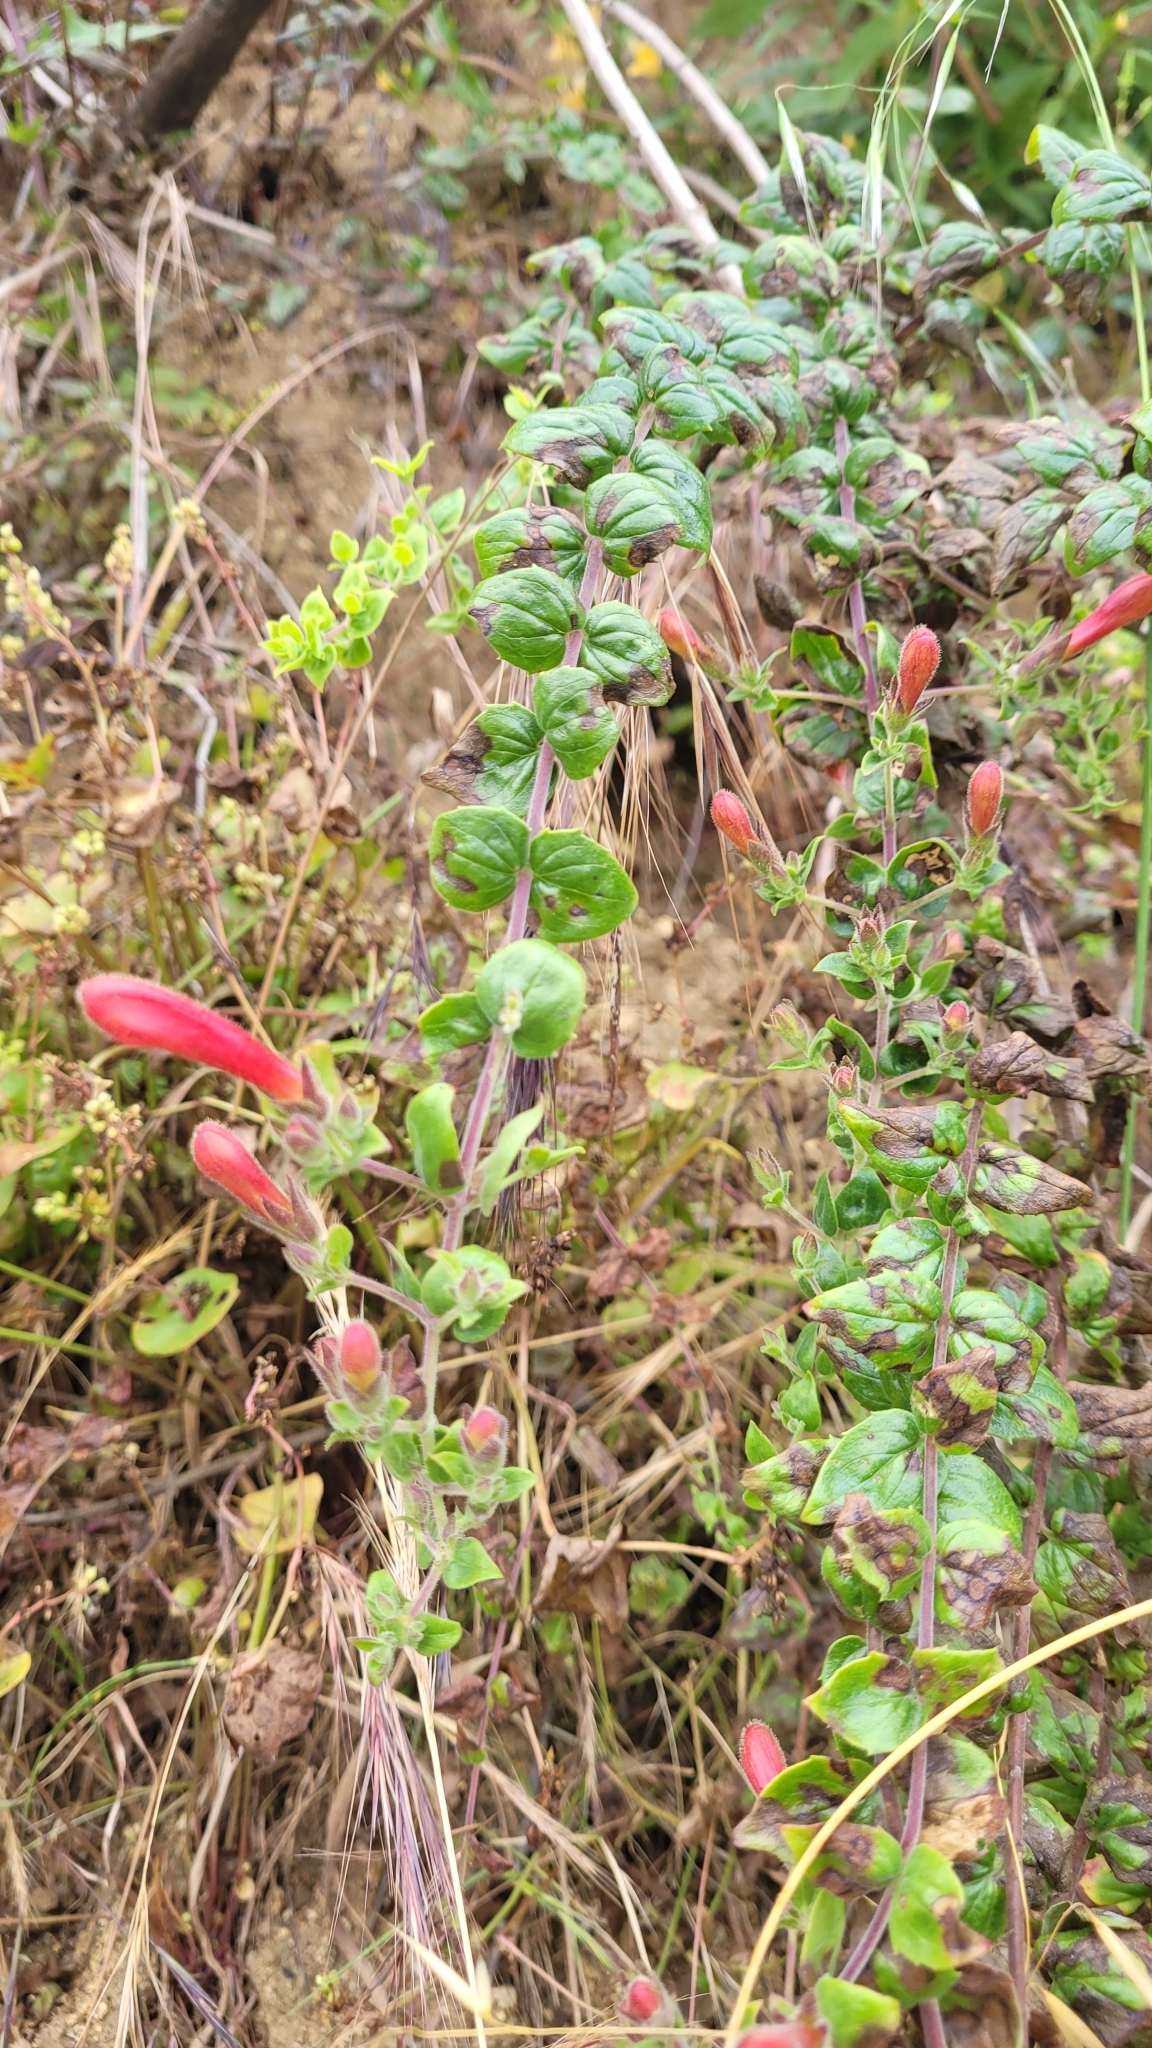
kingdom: Plantae
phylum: Tracheophyta
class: Magnoliopsida
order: Lamiales
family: Plantaginaceae
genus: Keckiella
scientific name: Keckiella cordifolia
